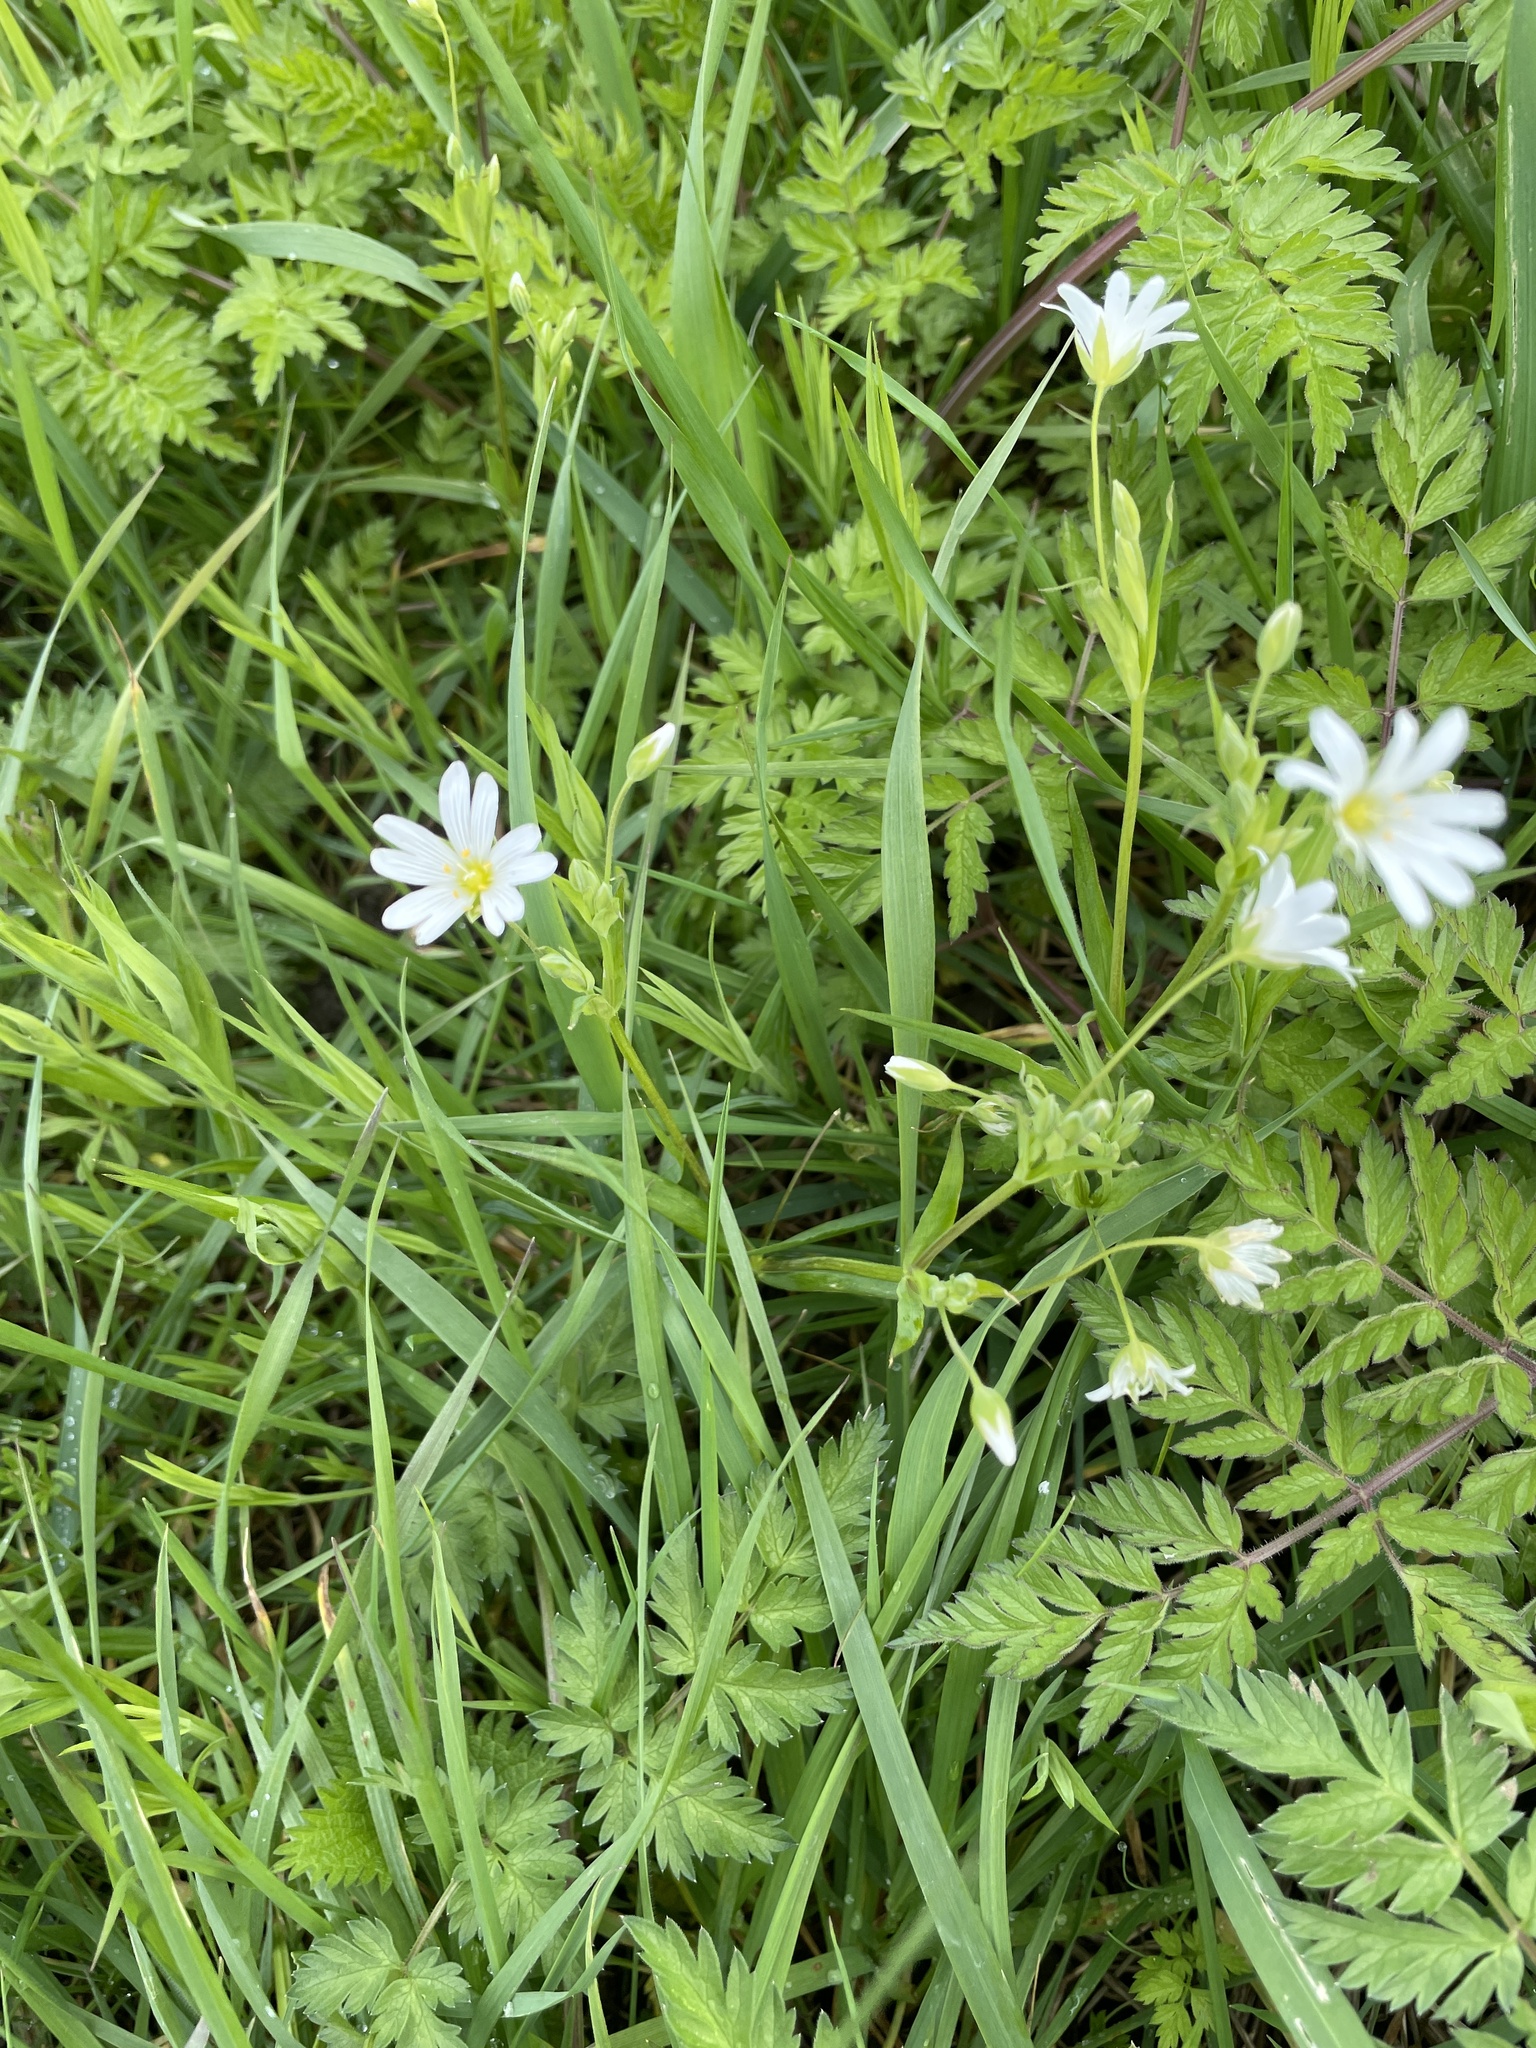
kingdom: Plantae
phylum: Tracheophyta
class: Magnoliopsida
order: Caryophyllales
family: Caryophyllaceae
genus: Rabelera
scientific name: Rabelera holostea
